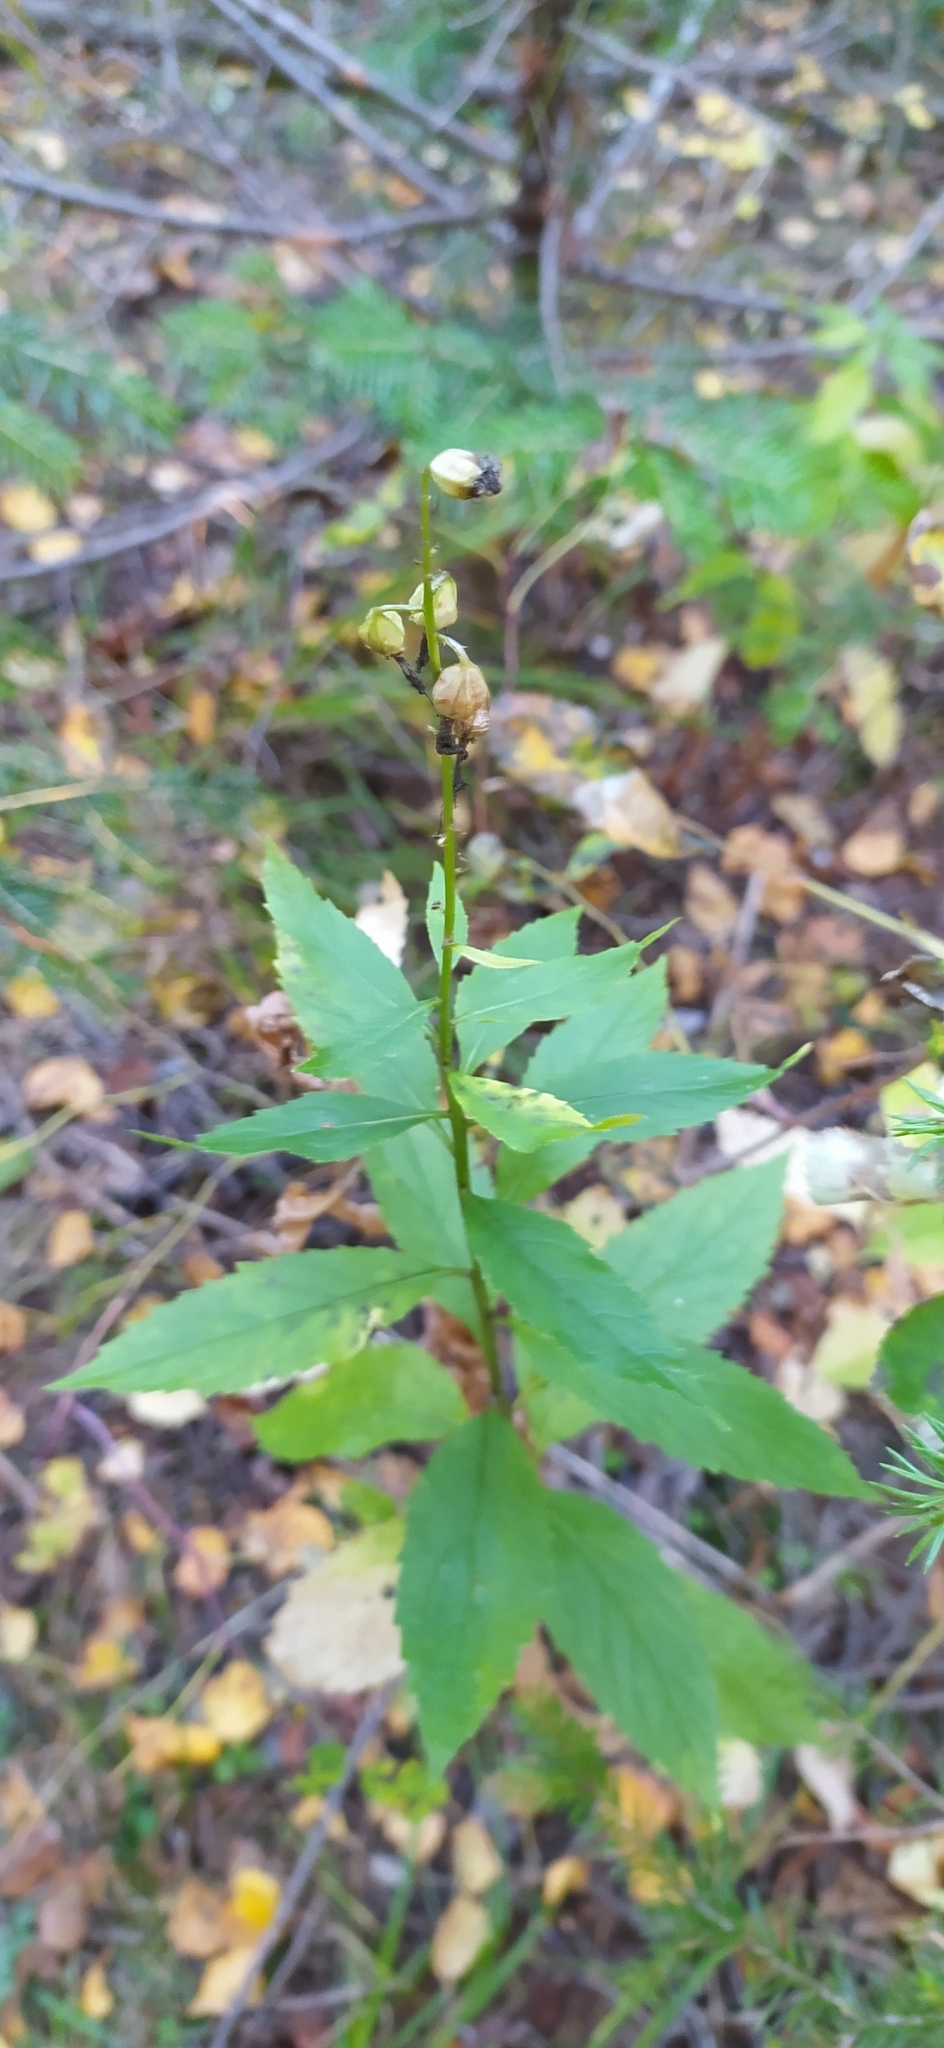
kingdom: Plantae
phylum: Tracheophyta
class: Magnoliopsida
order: Asterales
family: Campanulaceae
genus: Adenophora
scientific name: Adenophora liliifolia
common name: Lilyleaf ladybells
